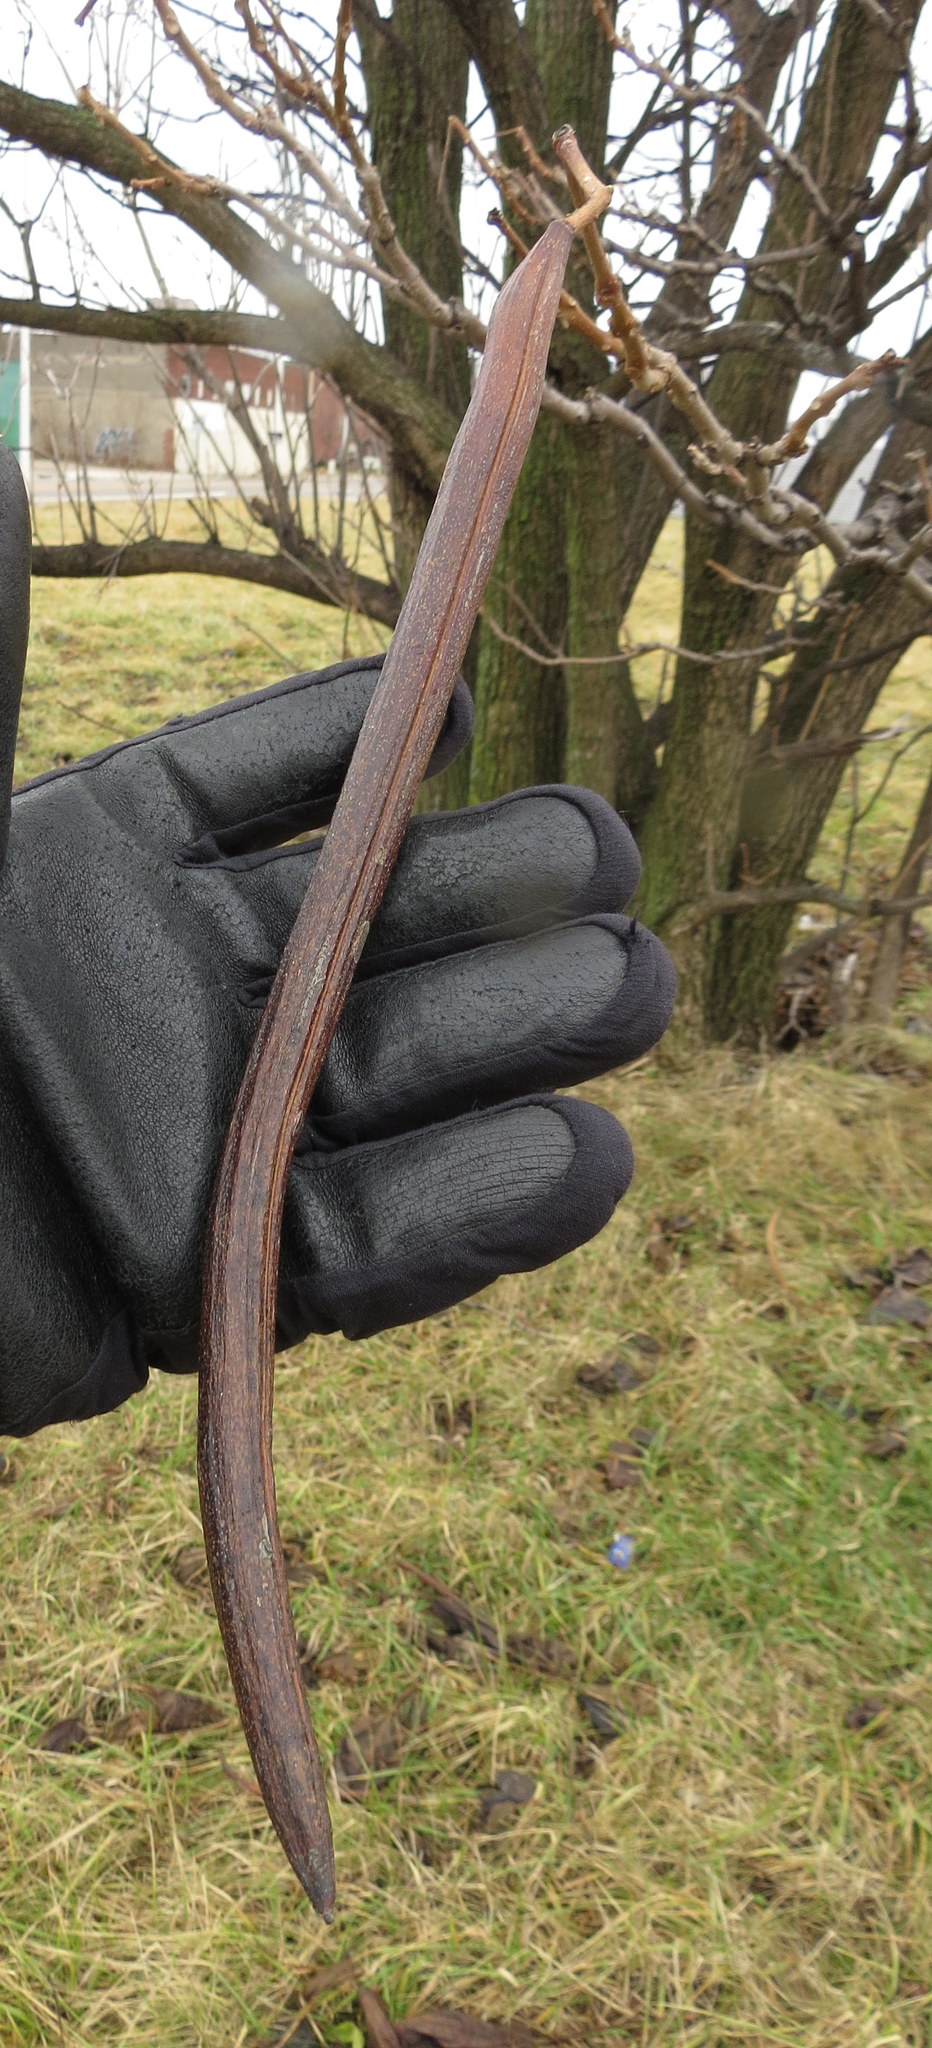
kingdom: Plantae
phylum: Tracheophyta
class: Magnoliopsida
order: Lamiales
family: Bignoniaceae
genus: Catalpa
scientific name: Catalpa speciosa
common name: Northern catalpa
